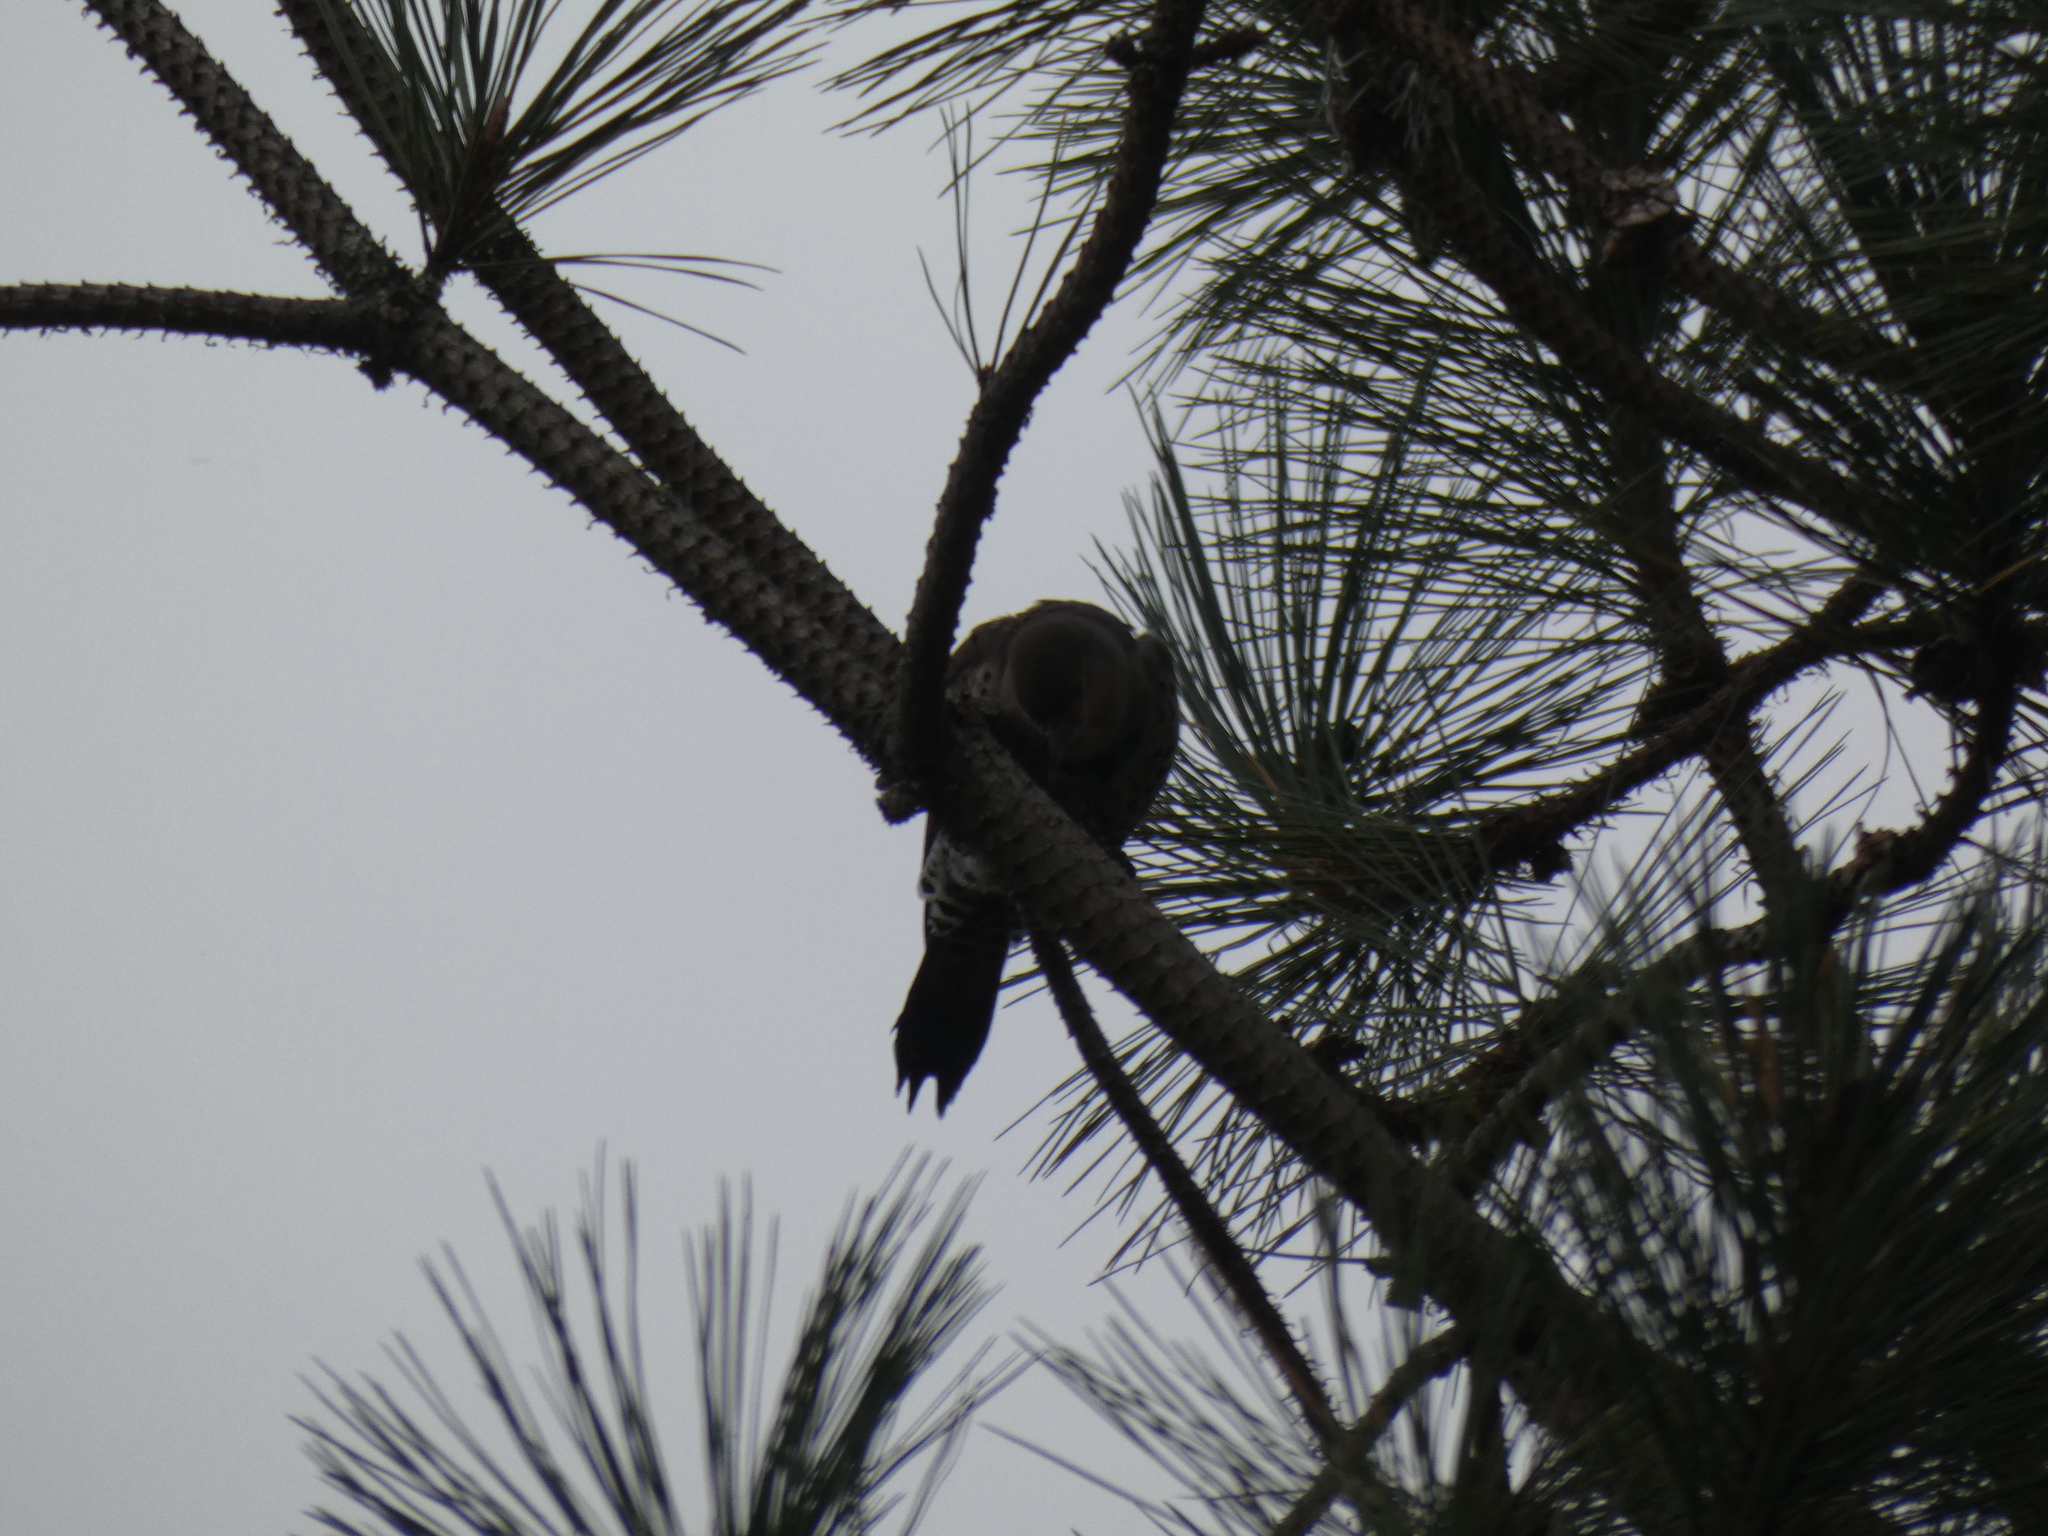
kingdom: Animalia
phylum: Chordata
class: Aves
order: Piciformes
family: Picidae
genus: Colaptes
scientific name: Colaptes auratus
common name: Northern flicker
